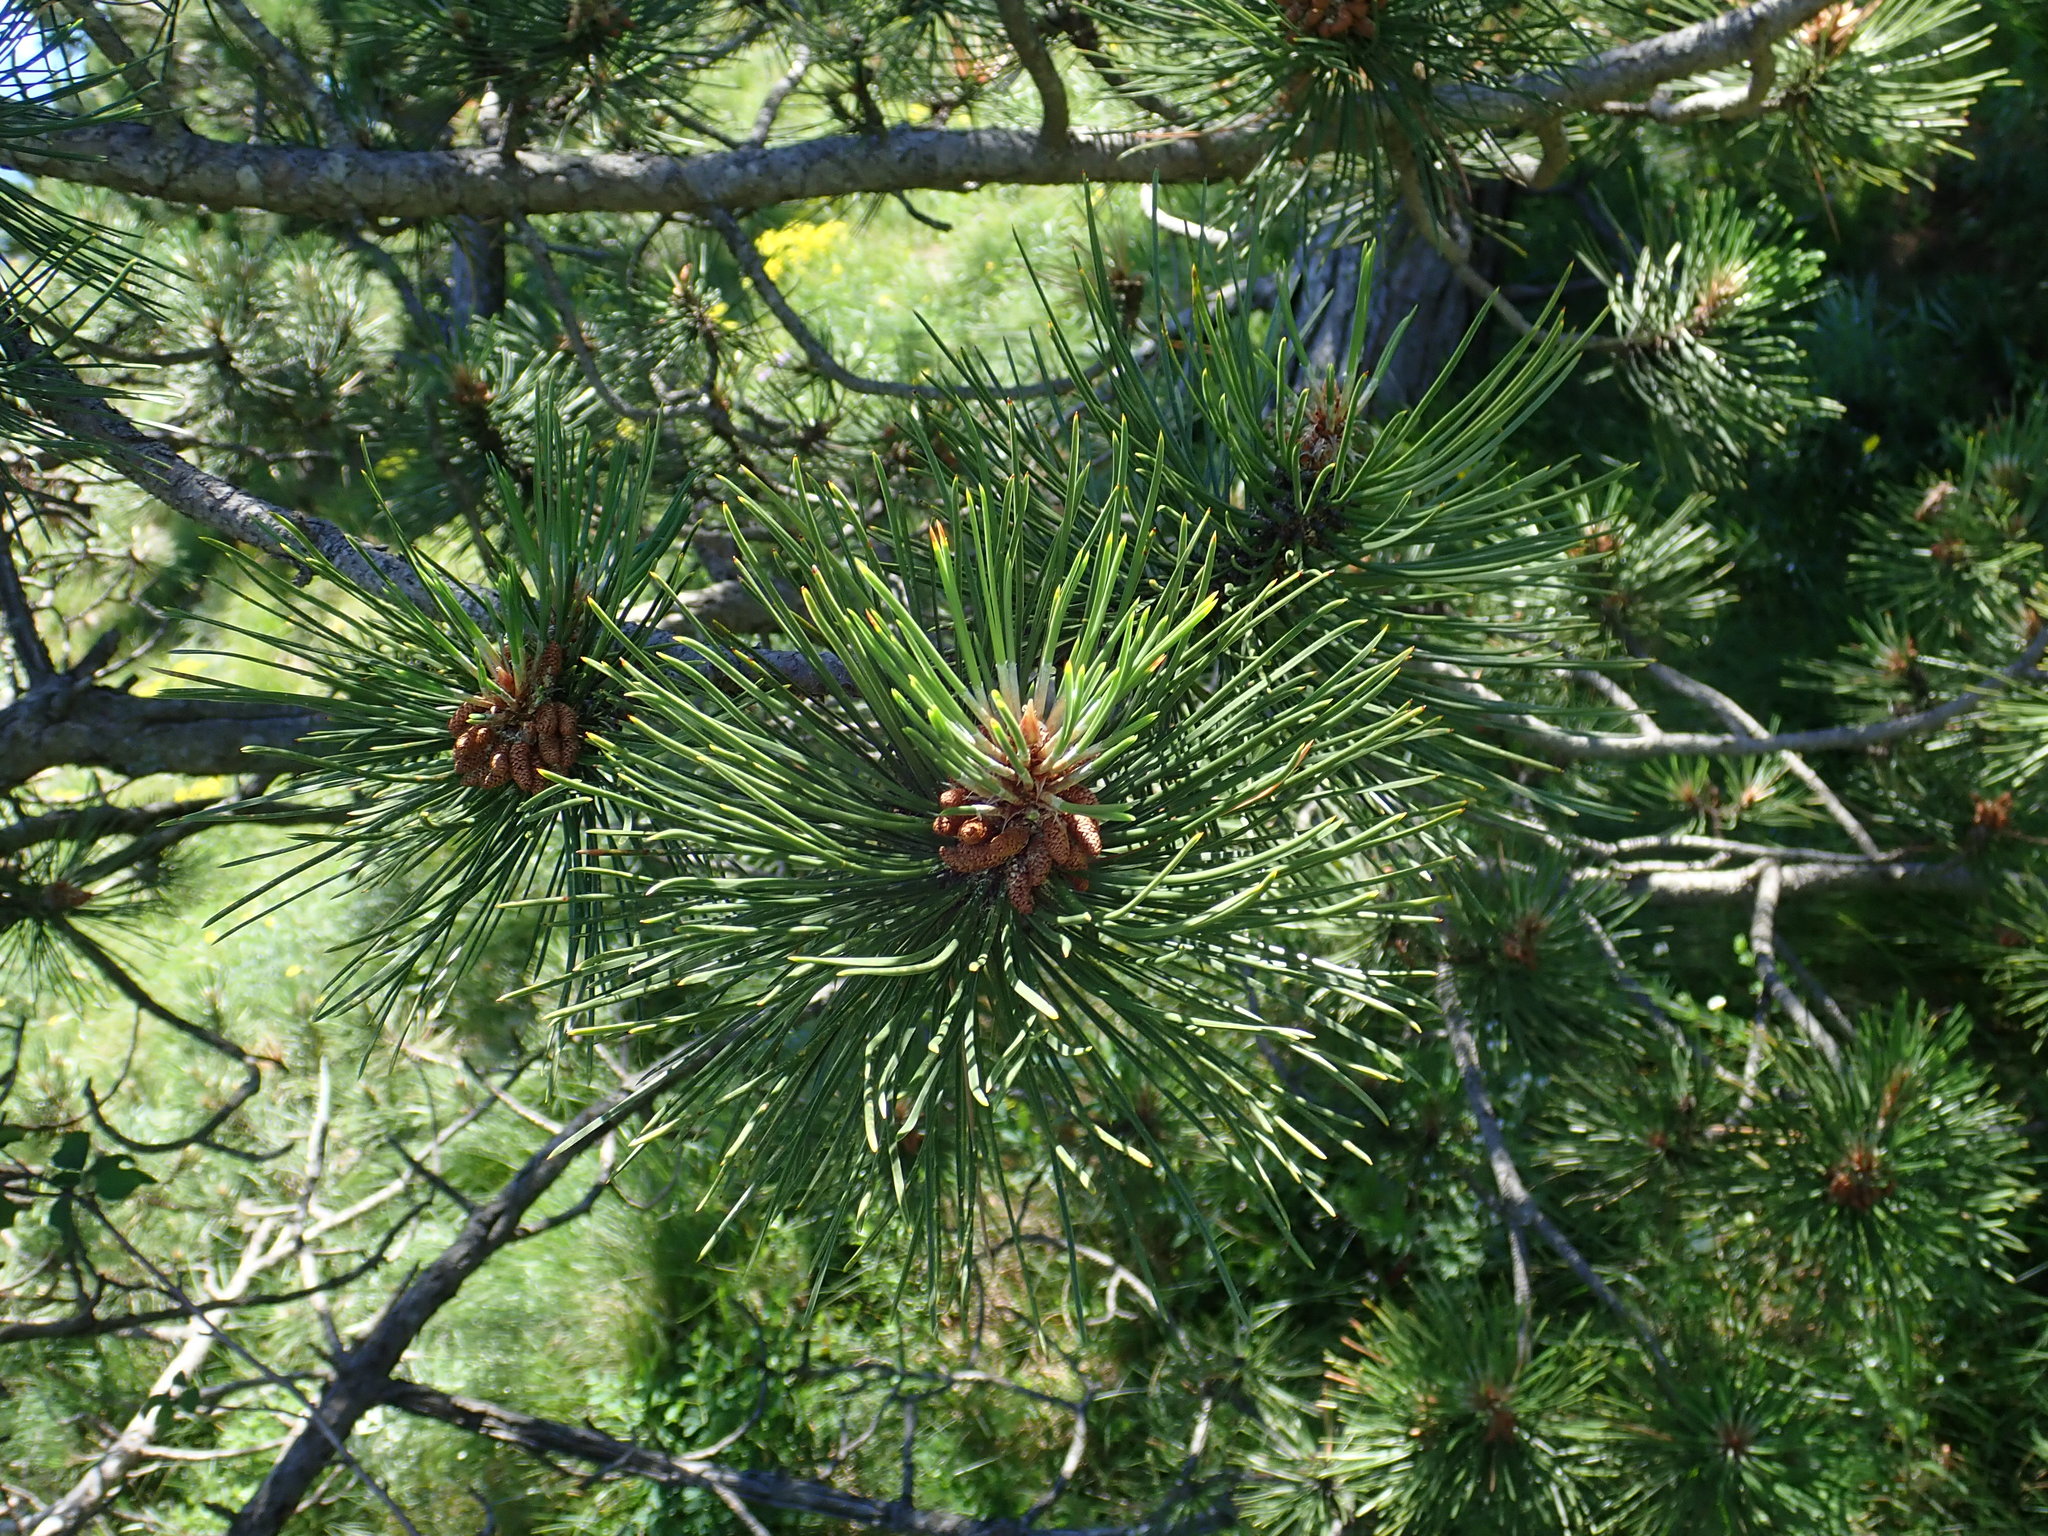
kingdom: Plantae
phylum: Tracheophyta
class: Pinopsida
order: Pinales
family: Pinaceae
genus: Pinus
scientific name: Pinus nigra
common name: Austrian pine
